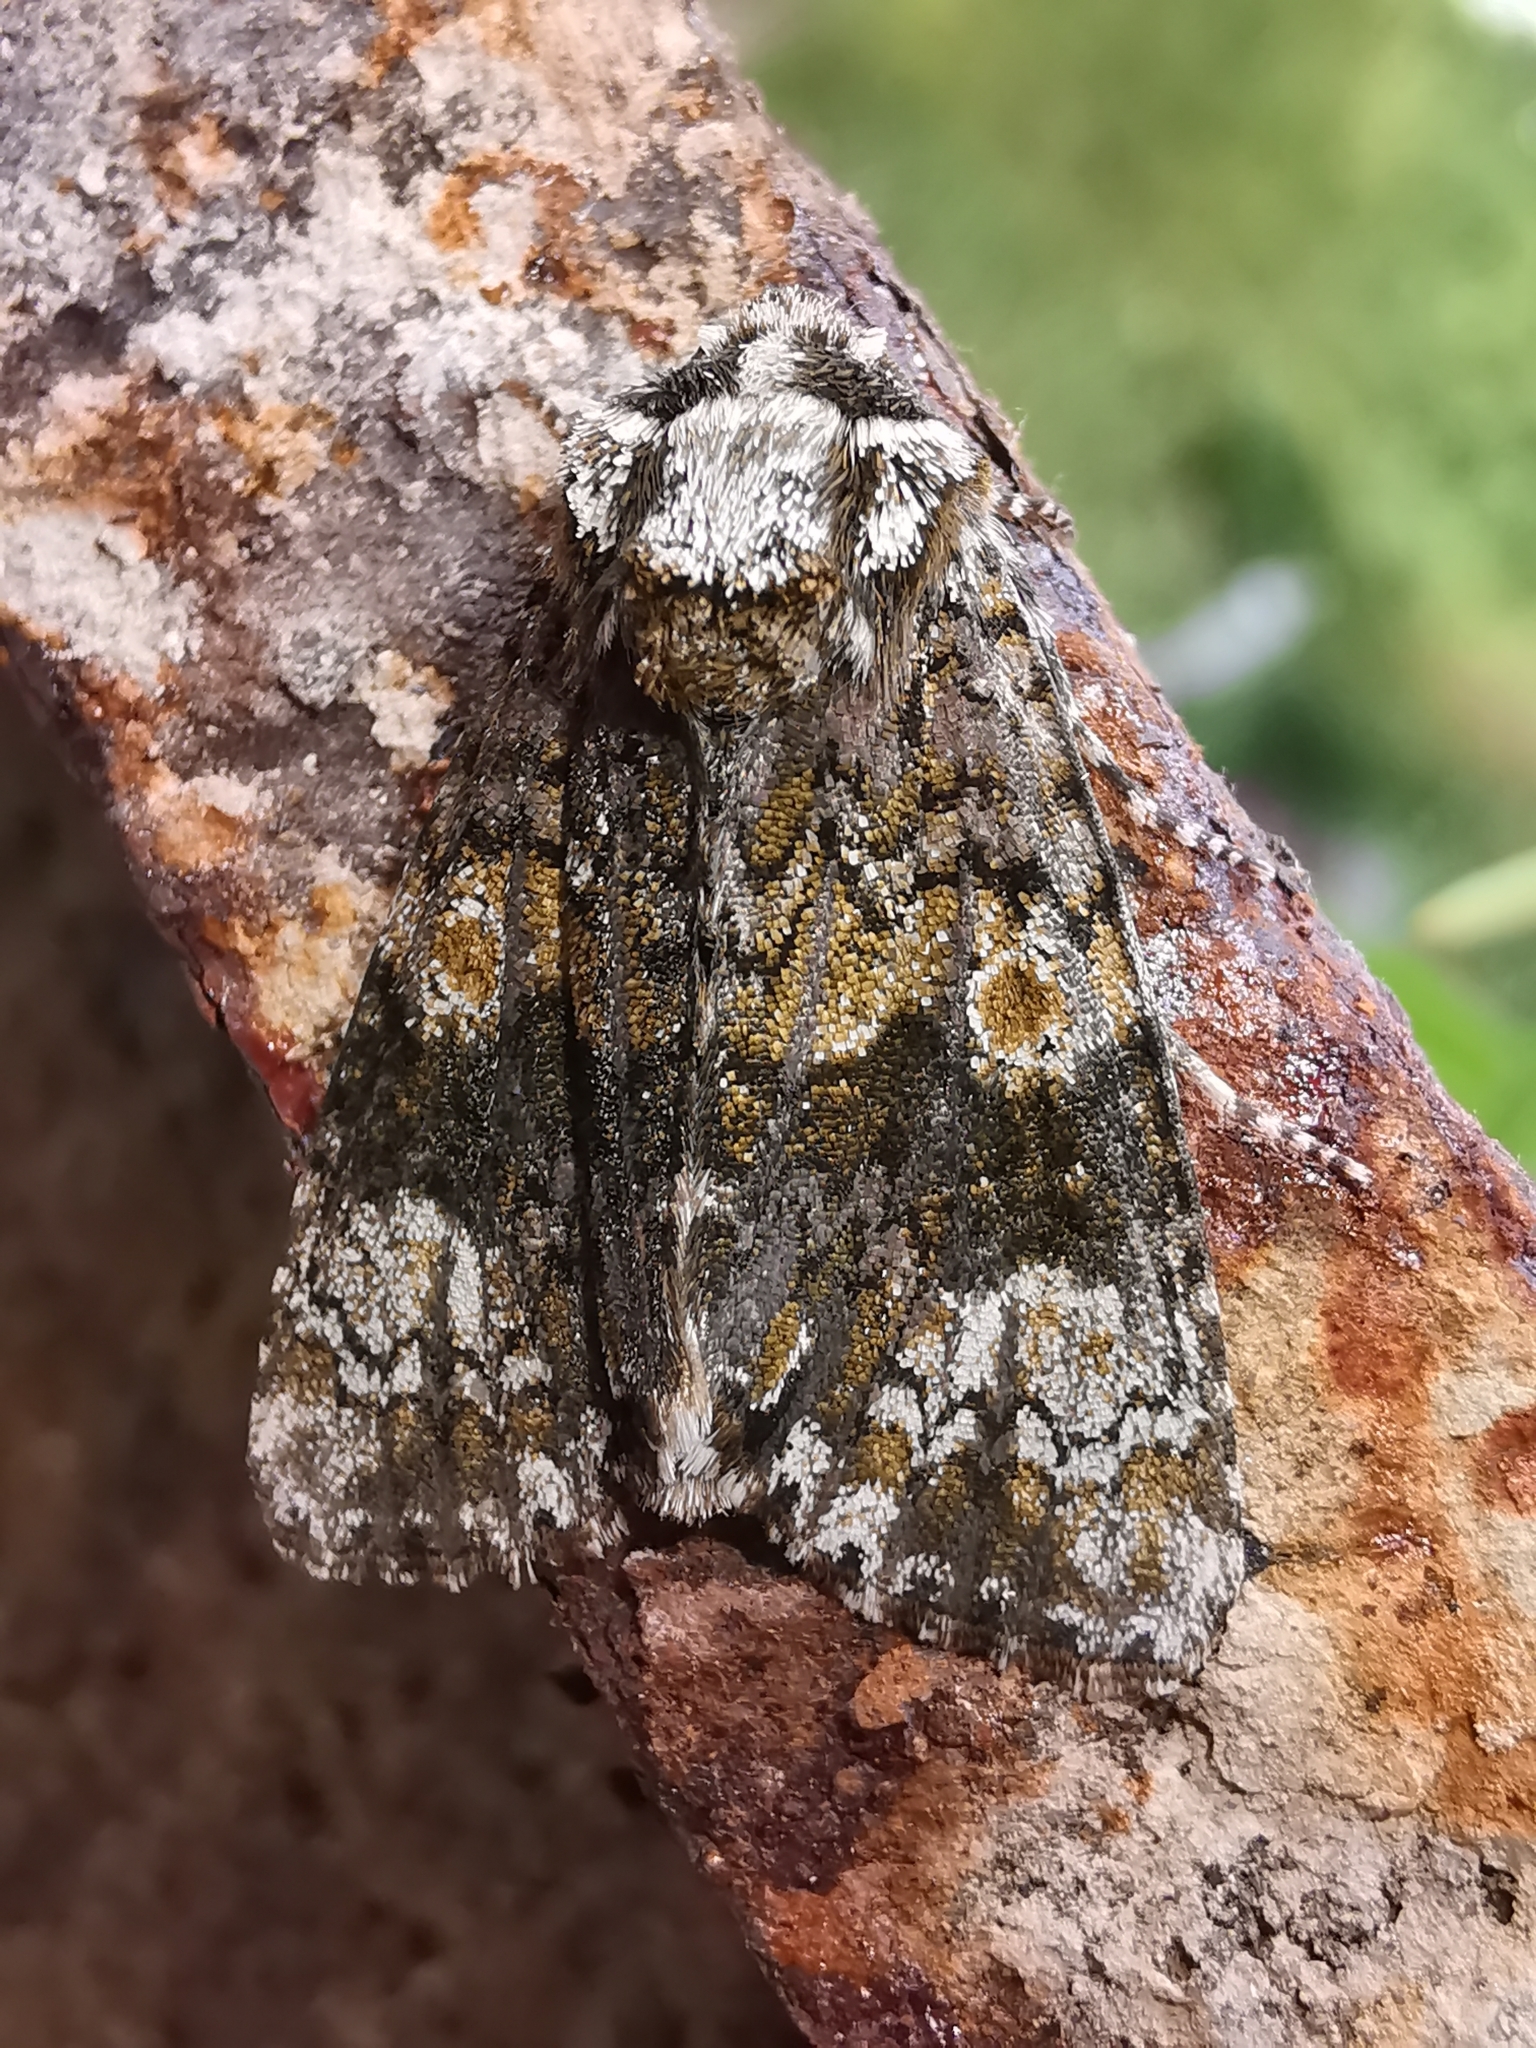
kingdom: Animalia
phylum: Arthropoda
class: Insecta
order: Lepidoptera
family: Noctuidae
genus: Craniophora
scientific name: Craniophora ligustri
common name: Coronet
